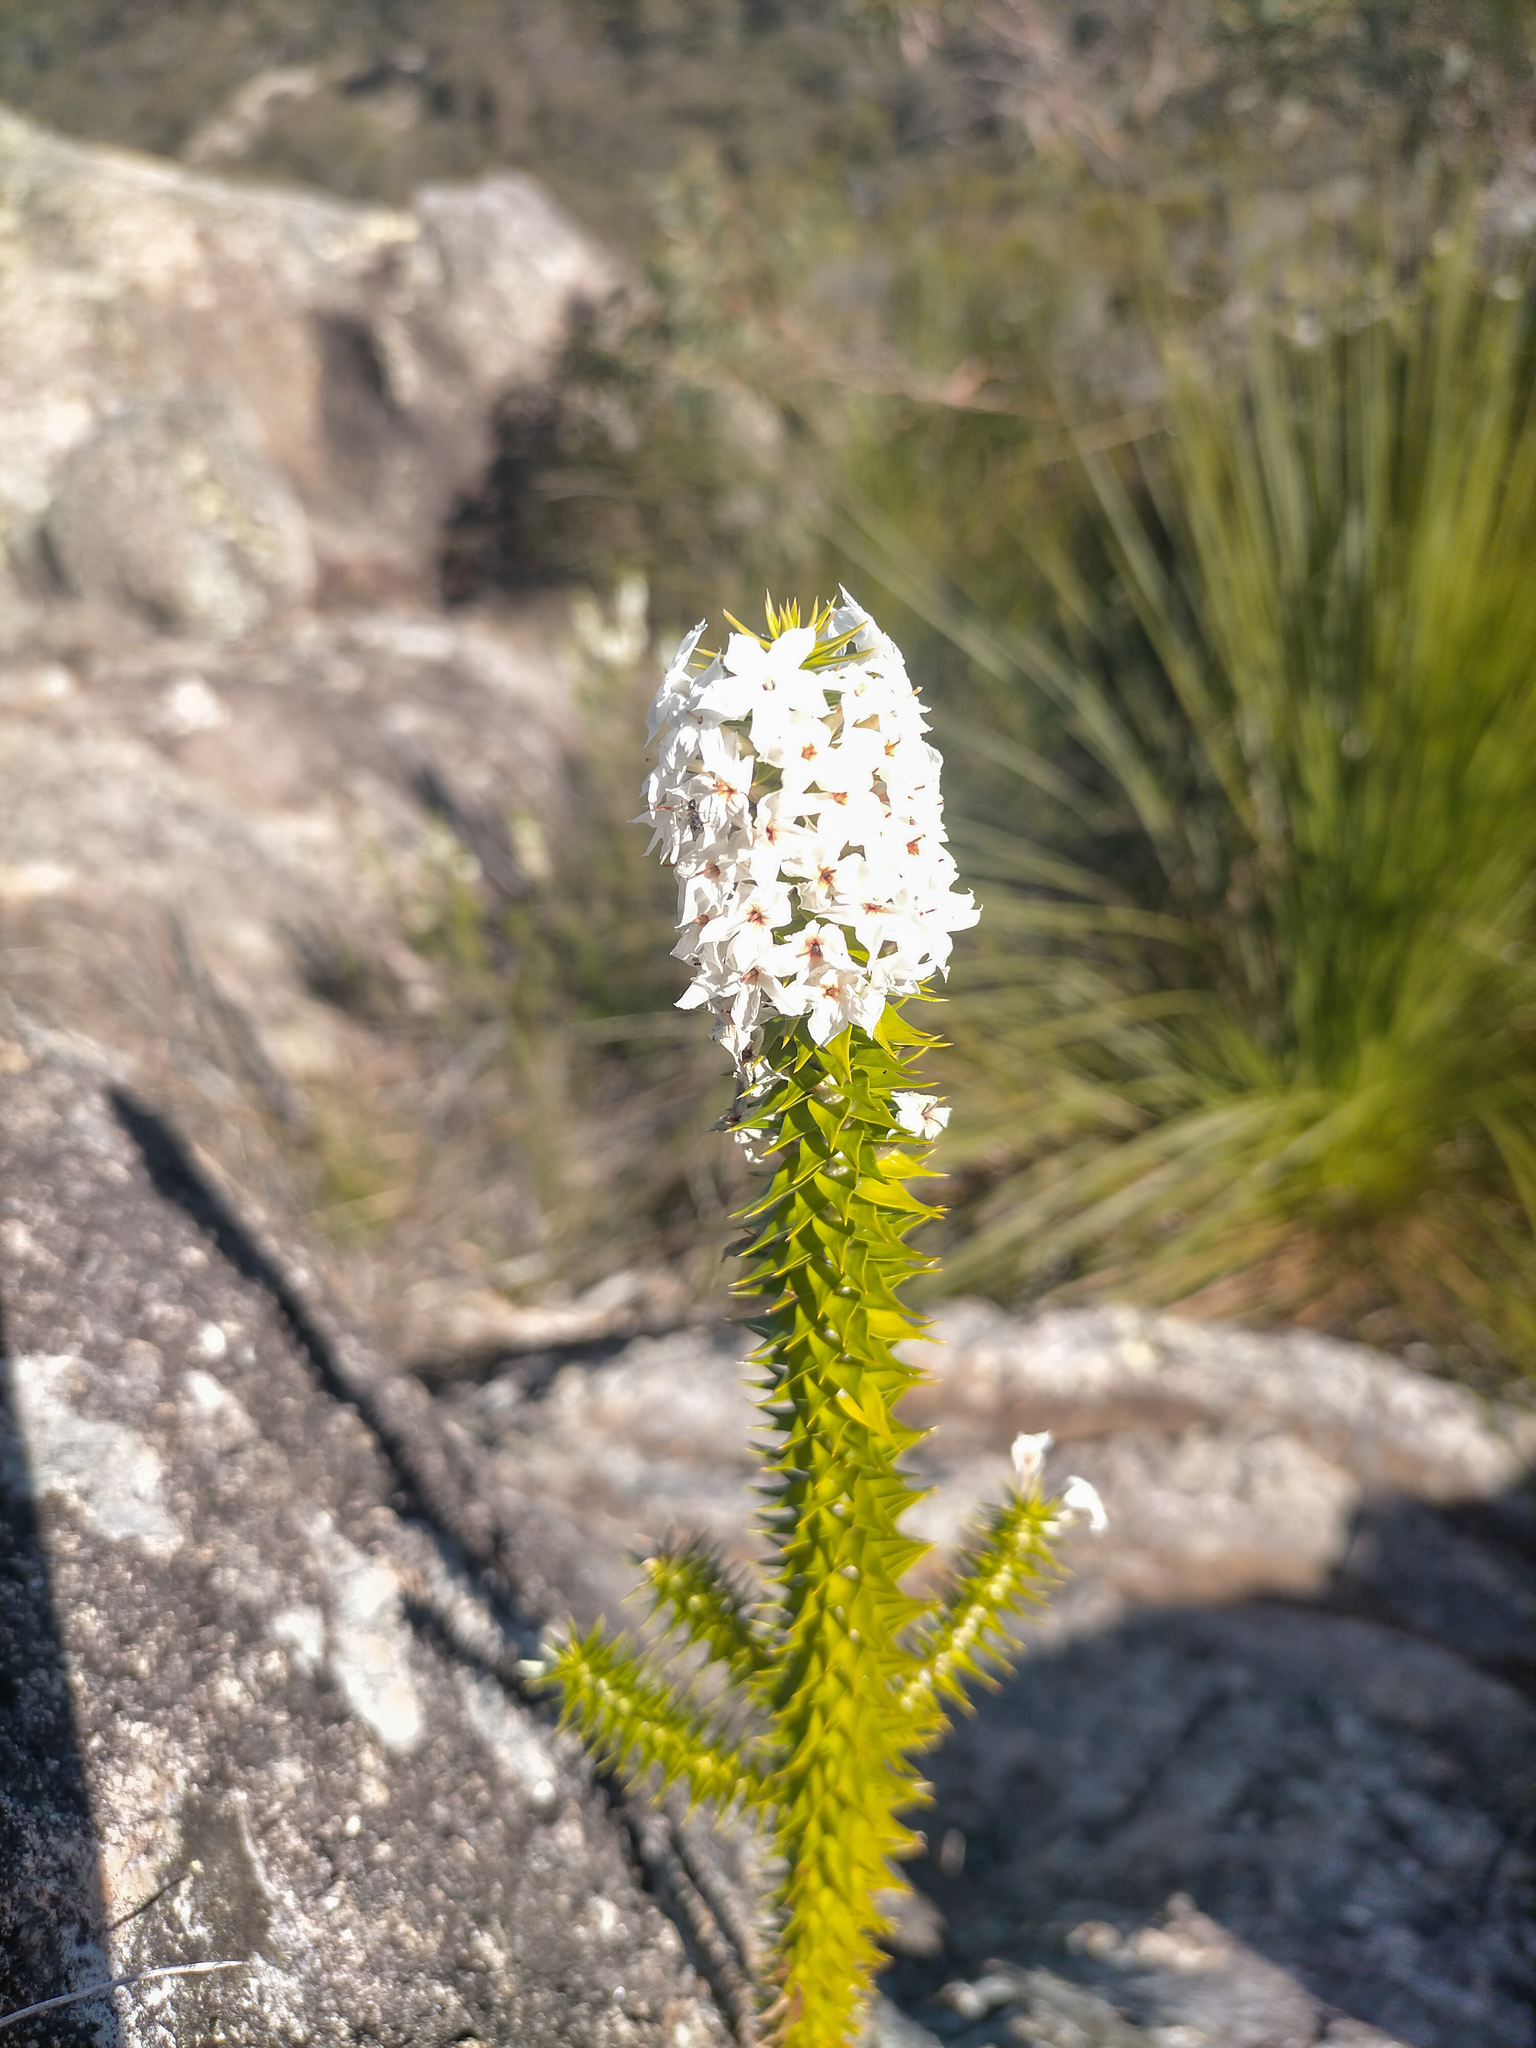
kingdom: Plantae
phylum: Tracheophyta
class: Magnoliopsida
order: Ericales
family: Ericaceae
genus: Woollsia
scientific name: Woollsia pungens
